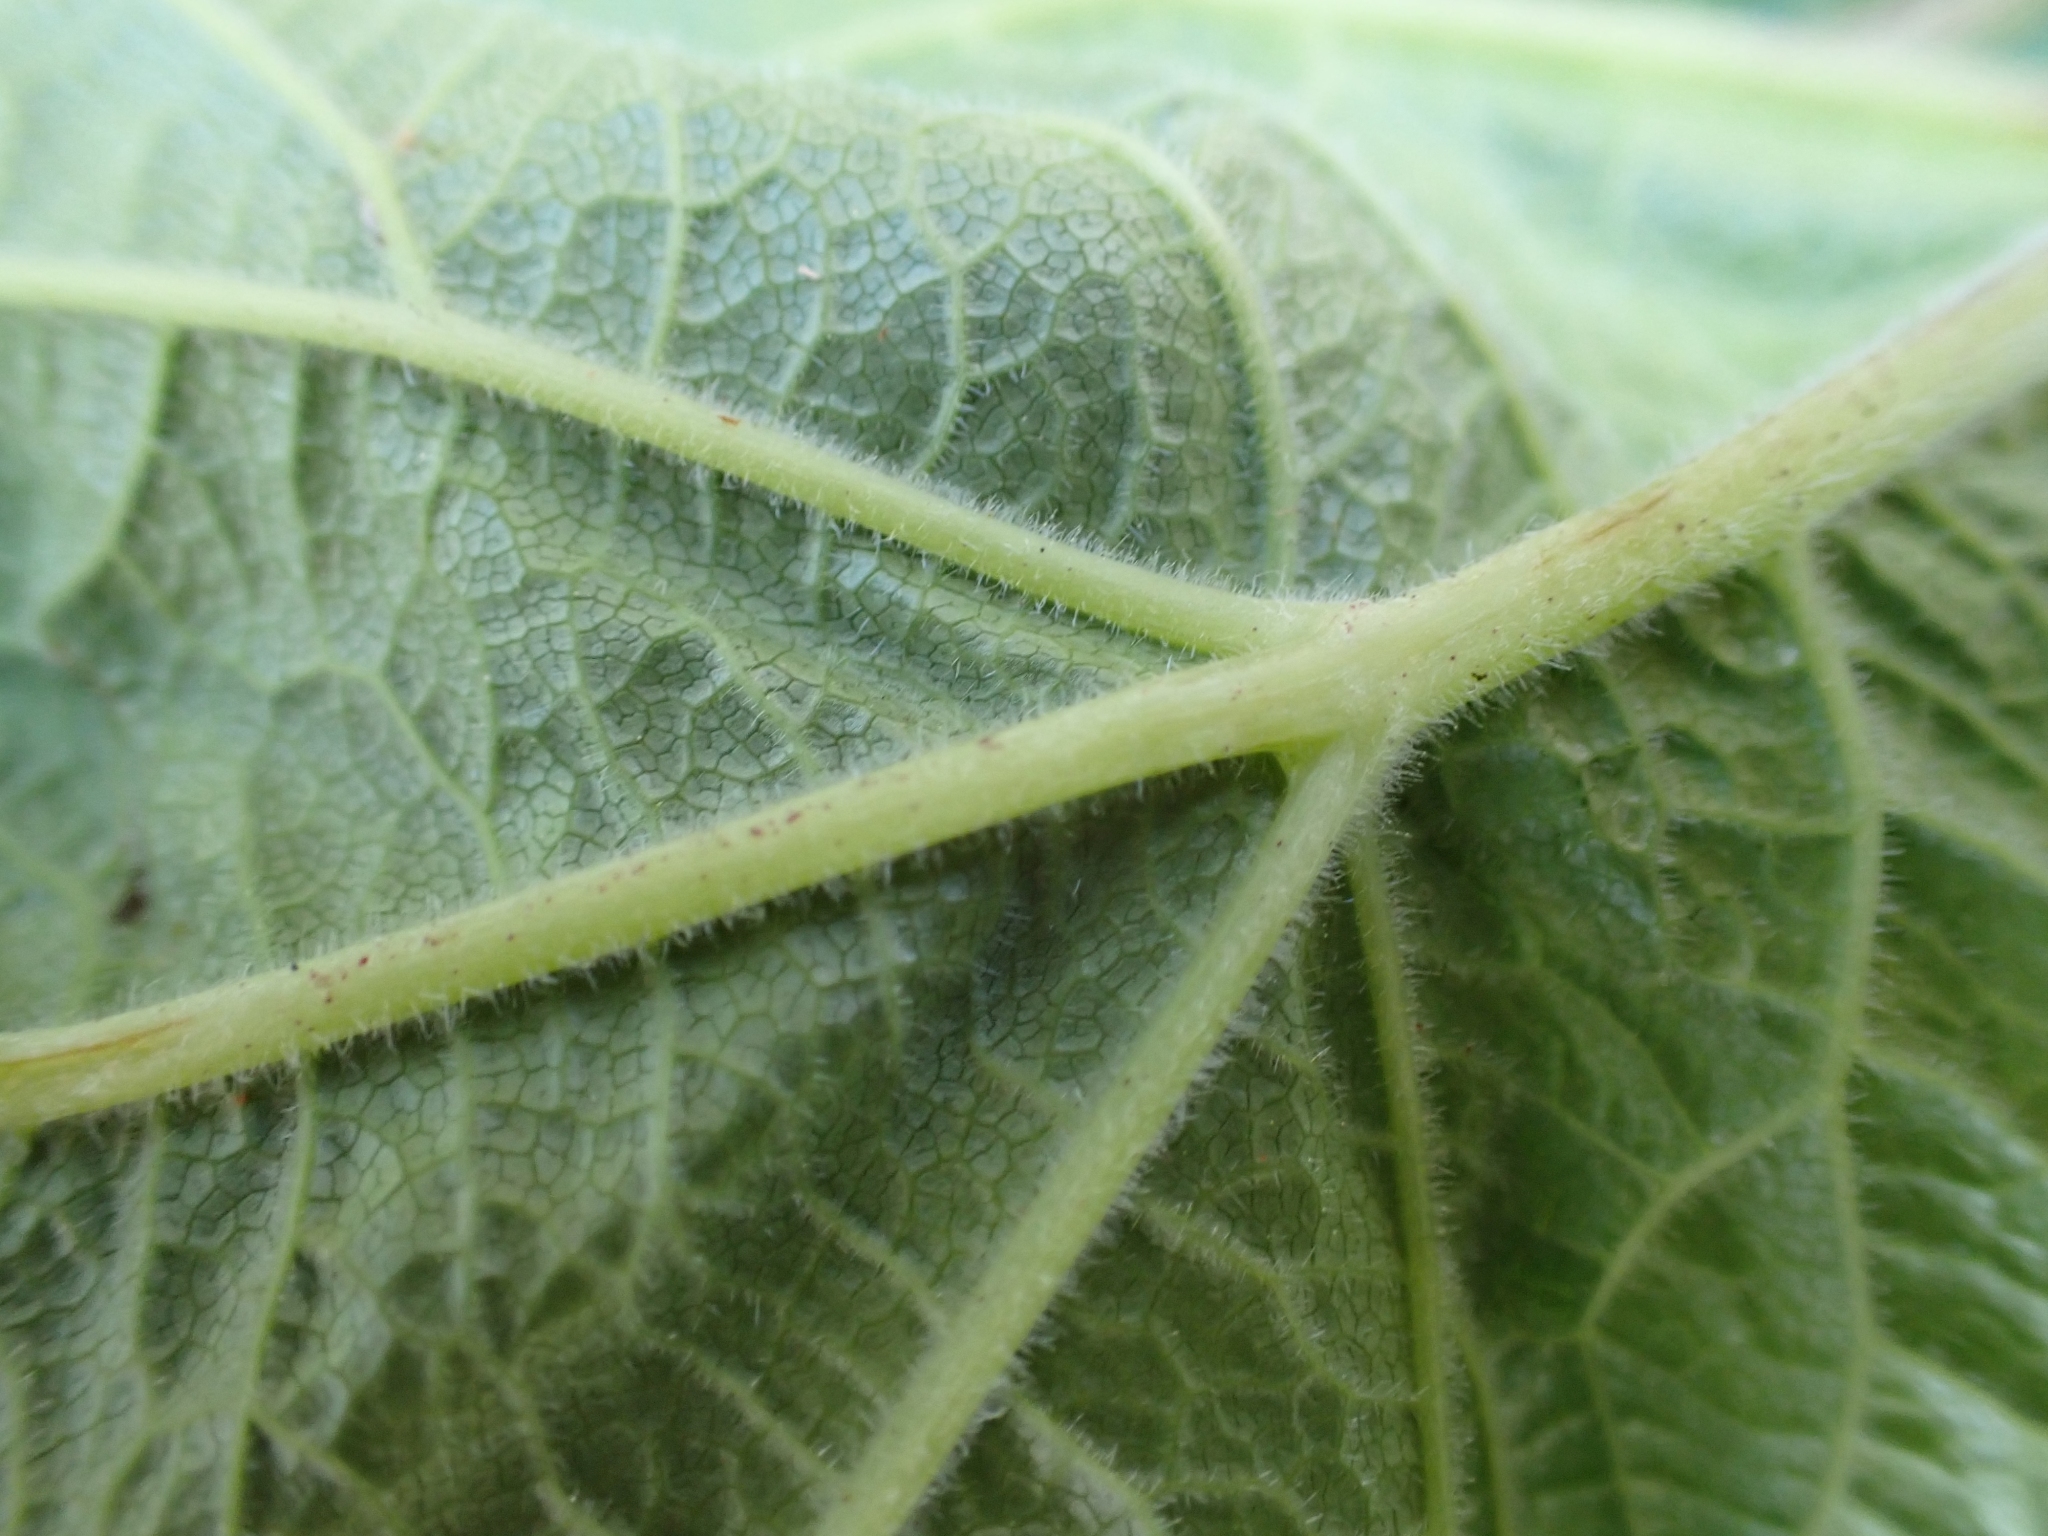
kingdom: Plantae
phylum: Tracheophyta
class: Magnoliopsida
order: Apiales
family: Apiaceae
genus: Heracleum
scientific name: Heracleum maximum
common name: American cow parsnip
